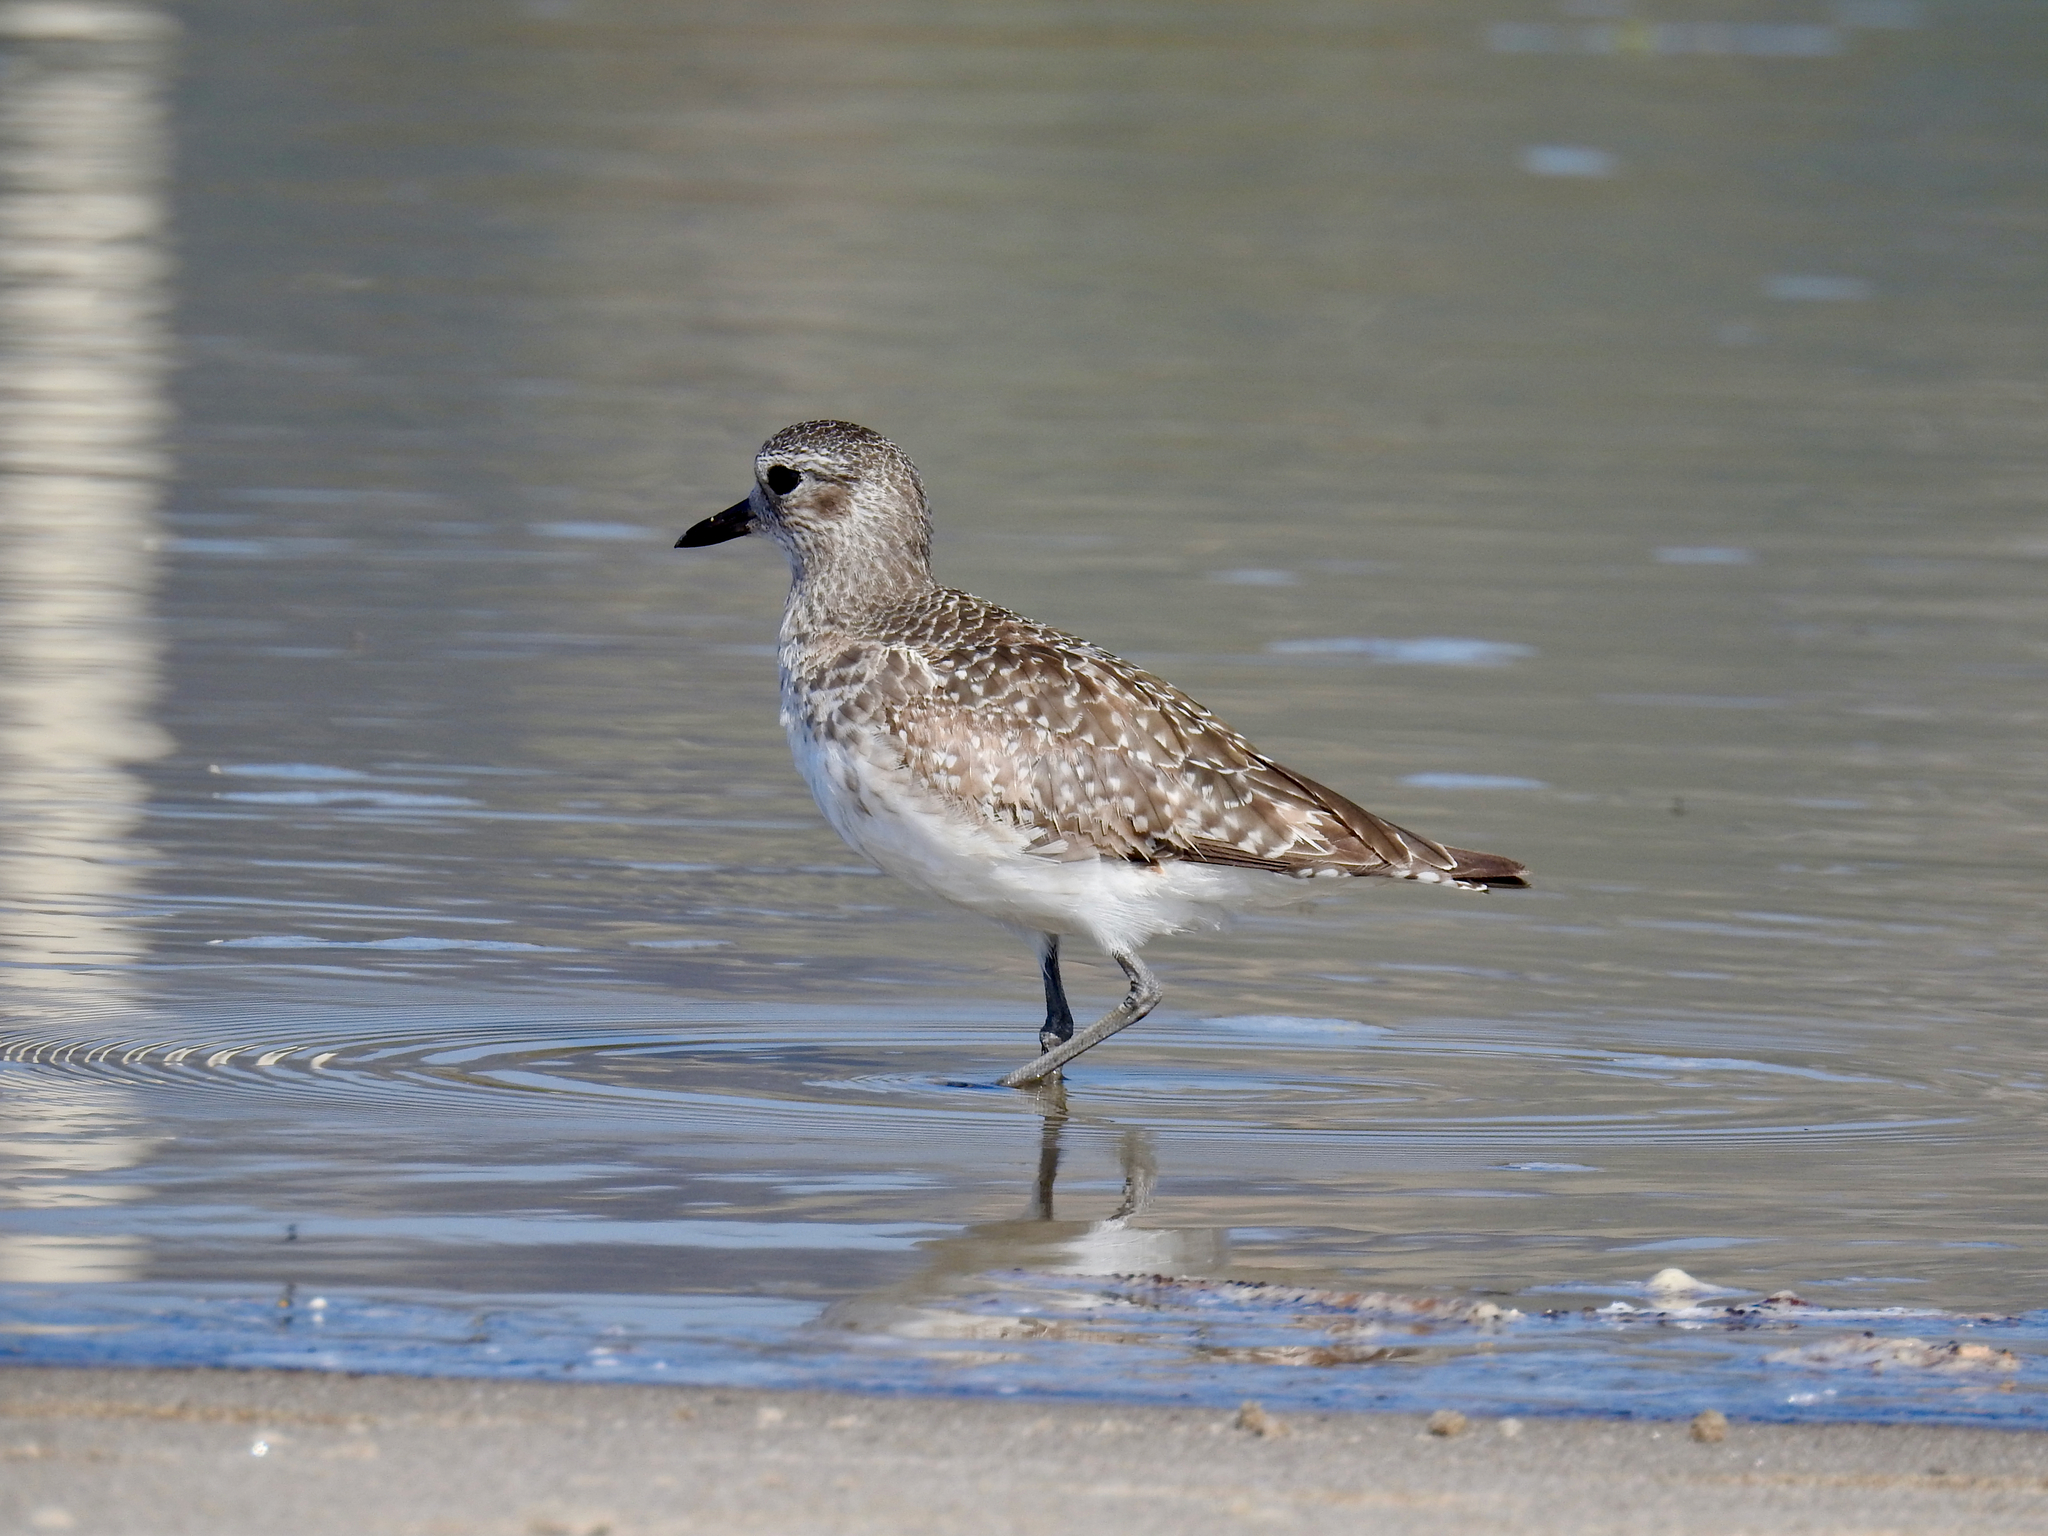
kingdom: Animalia
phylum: Chordata
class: Aves
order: Charadriiformes
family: Charadriidae
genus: Pluvialis
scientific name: Pluvialis squatarola
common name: Grey plover
